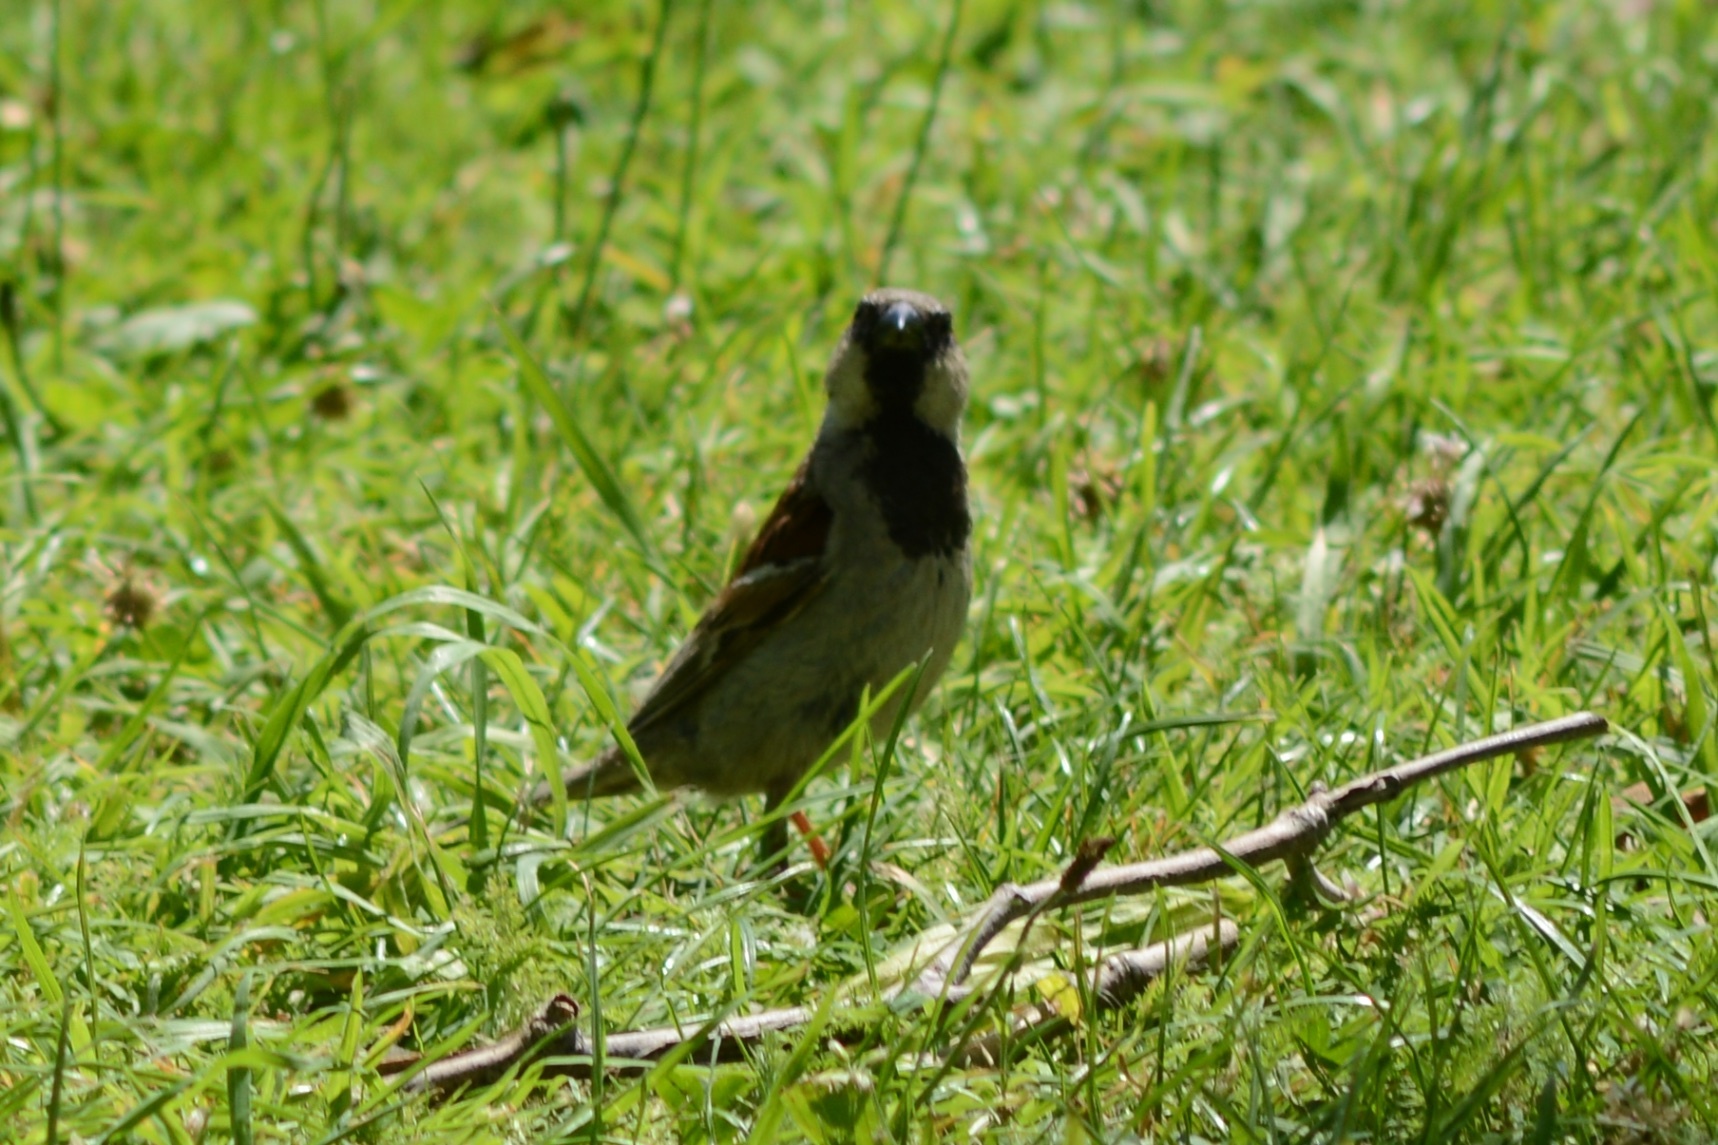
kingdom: Animalia
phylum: Chordata
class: Aves
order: Passeriformes
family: Passeridae
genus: Passer
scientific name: Passer domesticus
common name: House sparrow
